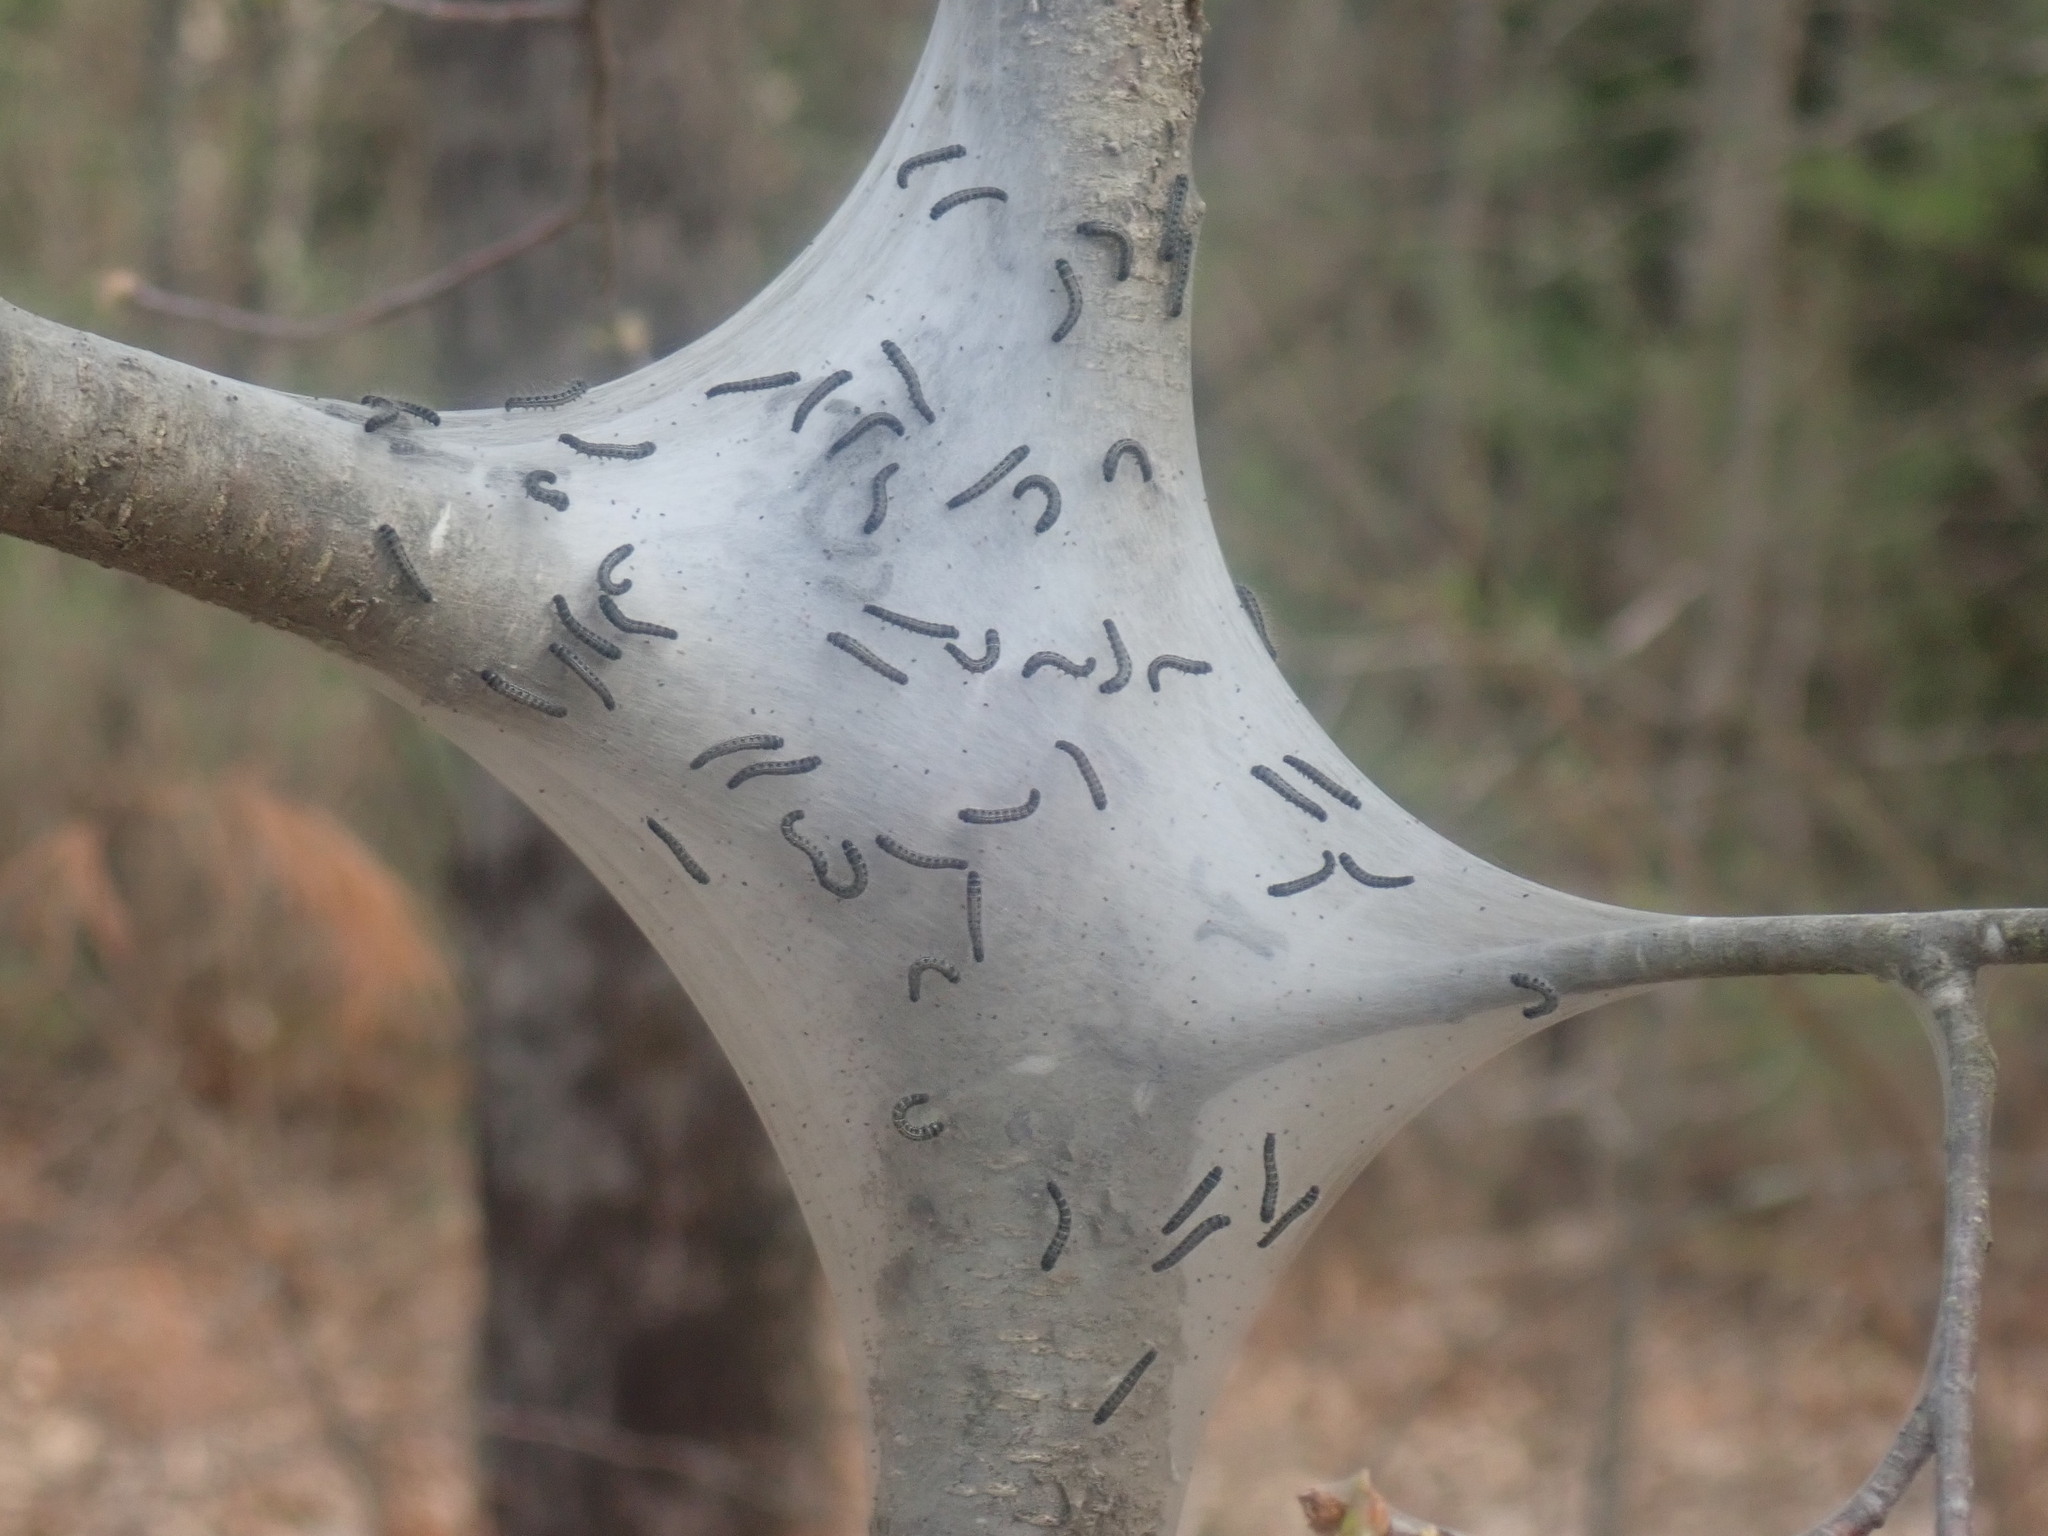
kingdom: Animalia
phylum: Arthropoda
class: Insecta
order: Lepidoptera
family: Lasiocampidae
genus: Malacosoma
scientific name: Malacosoma americana
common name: Eastern tent caterpillar moth
